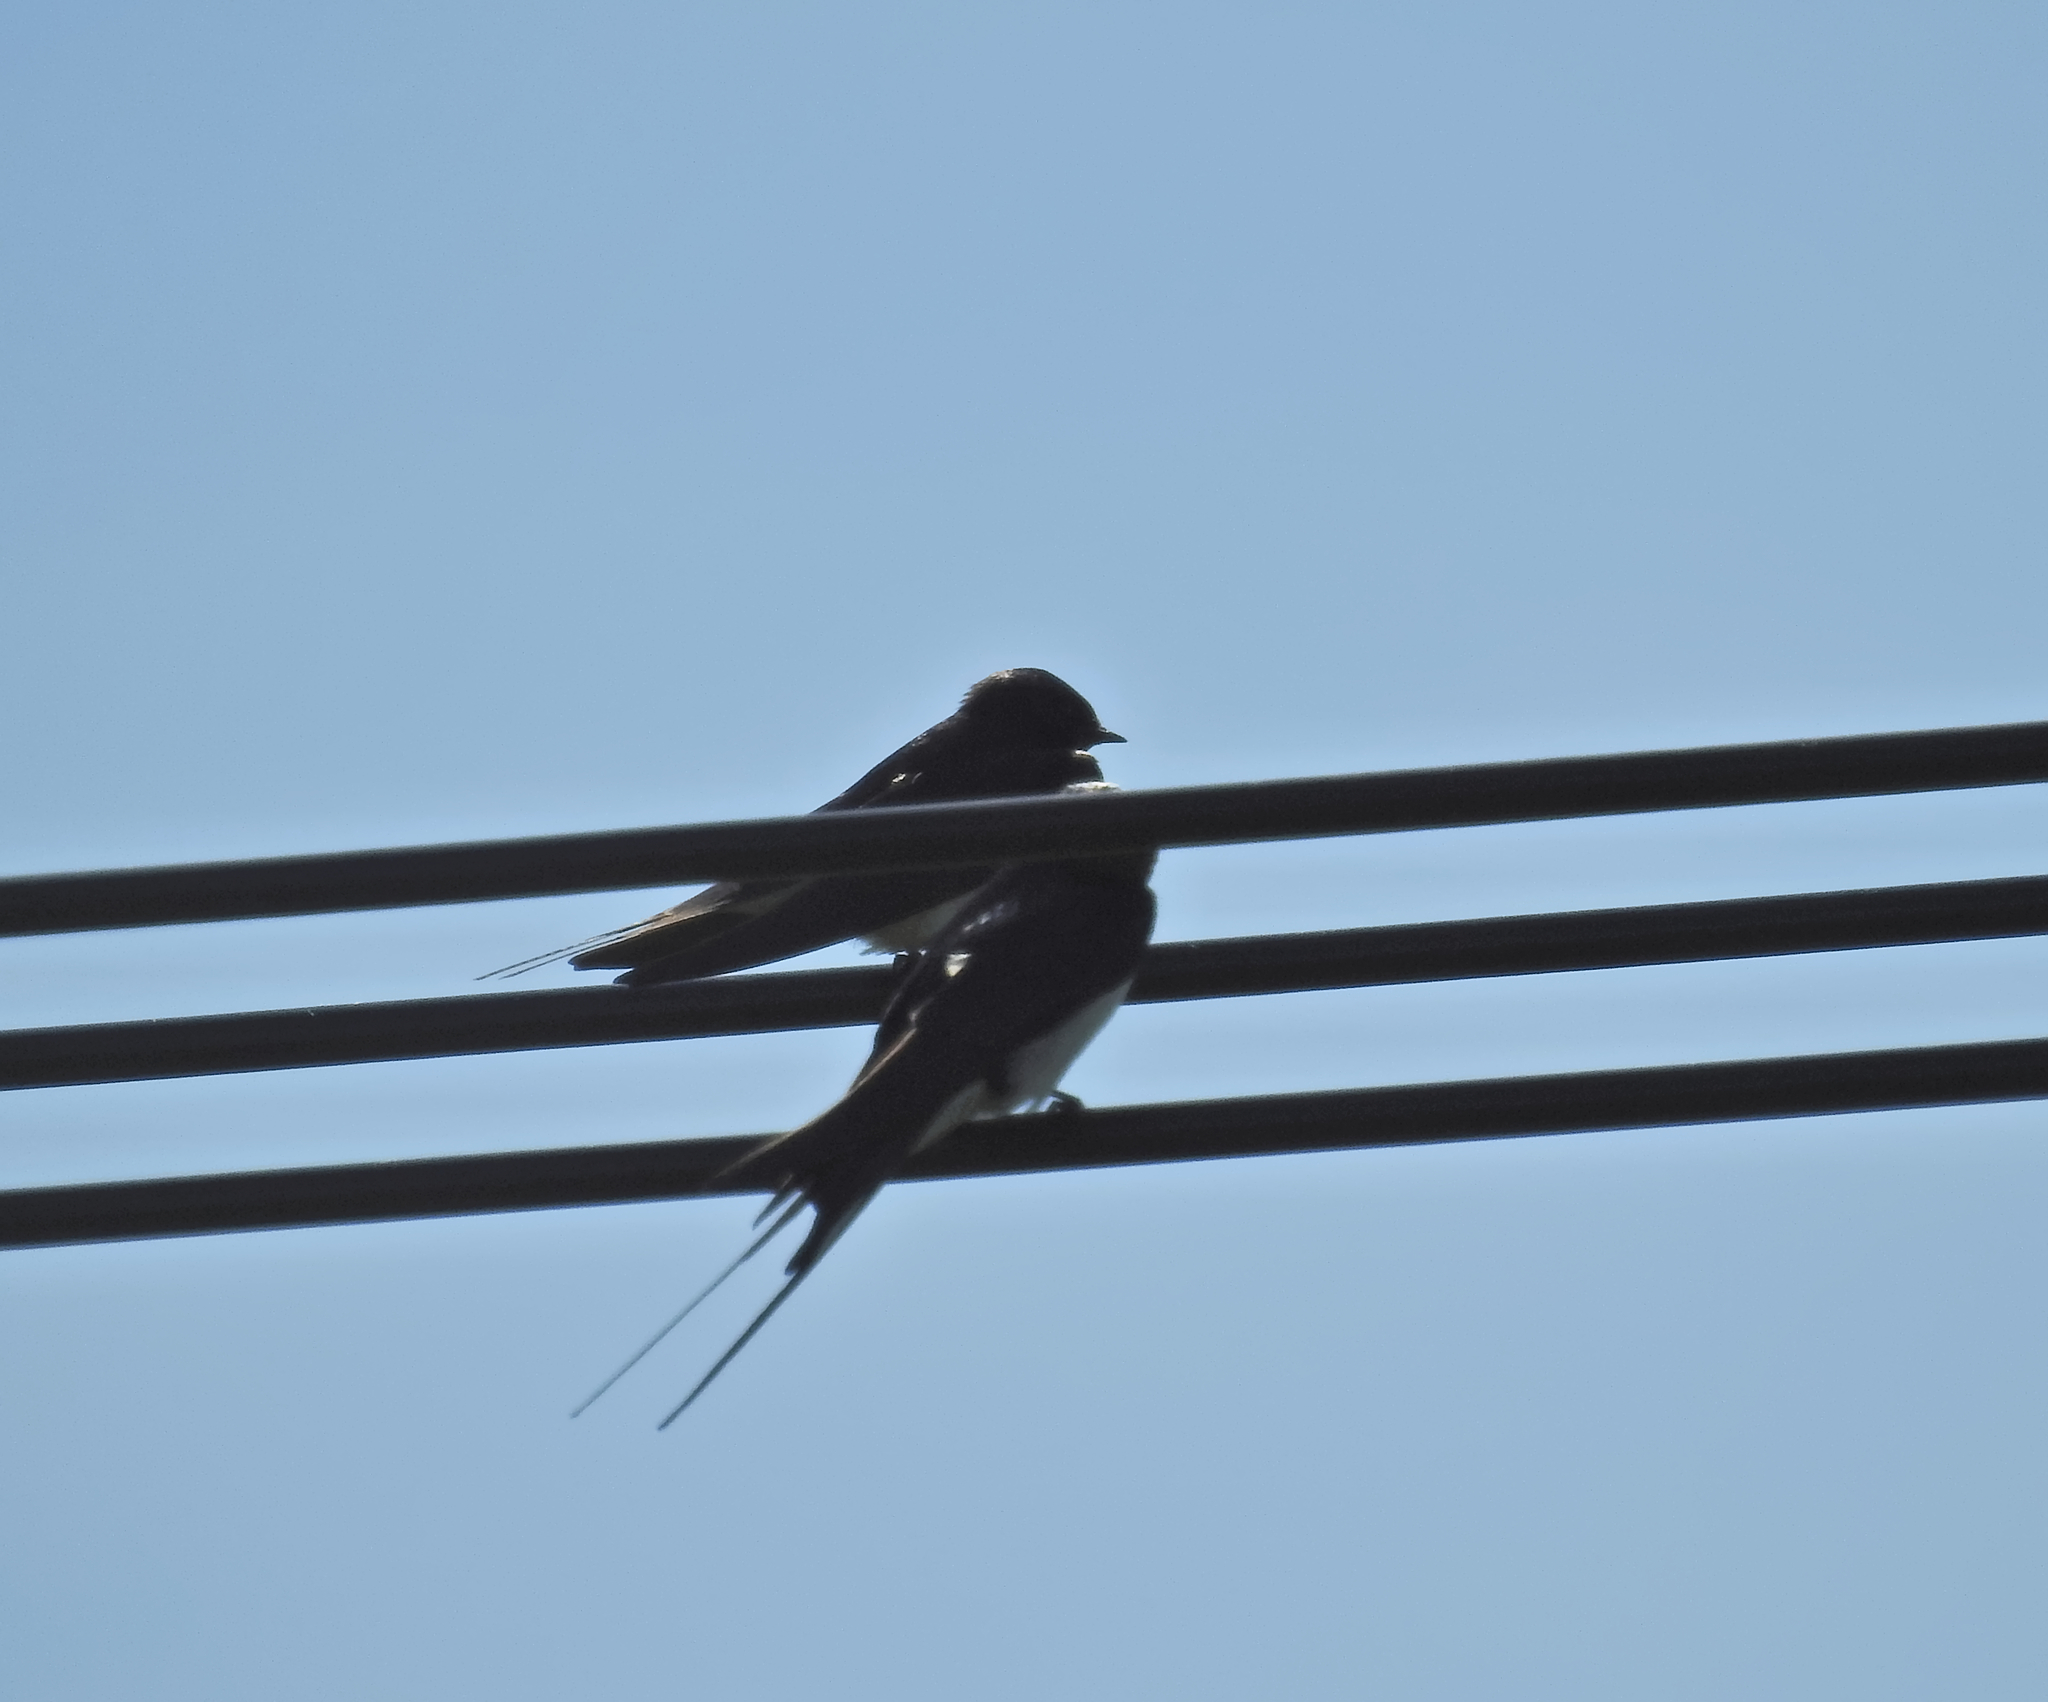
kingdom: Animalia
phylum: Chordata
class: Aves
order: Passeriformes
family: Hirundinidae
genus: Hirundo
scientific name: Hirundo rustica
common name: Barn swallow
